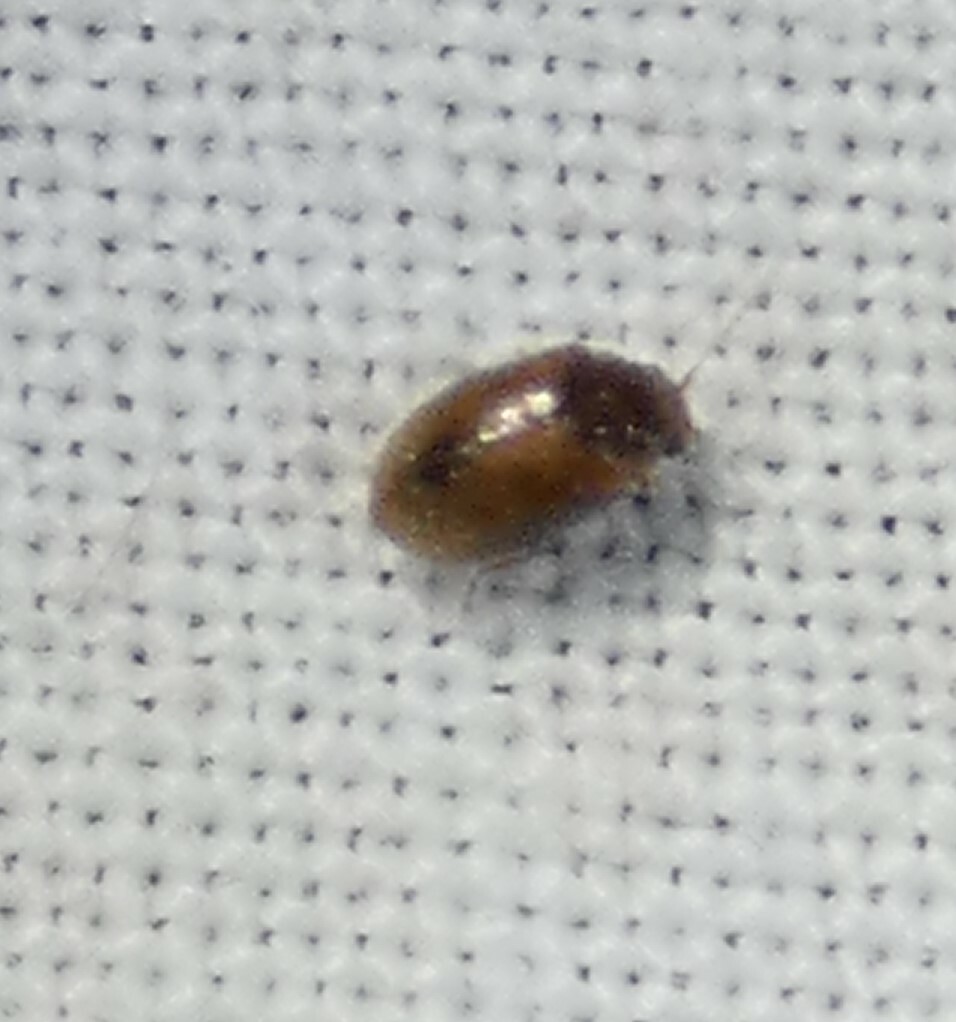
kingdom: Animalia
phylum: Arthropoda
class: Insecta
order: Coleoptera
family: Scirtidae
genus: Contacyphon
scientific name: Contacyphon
